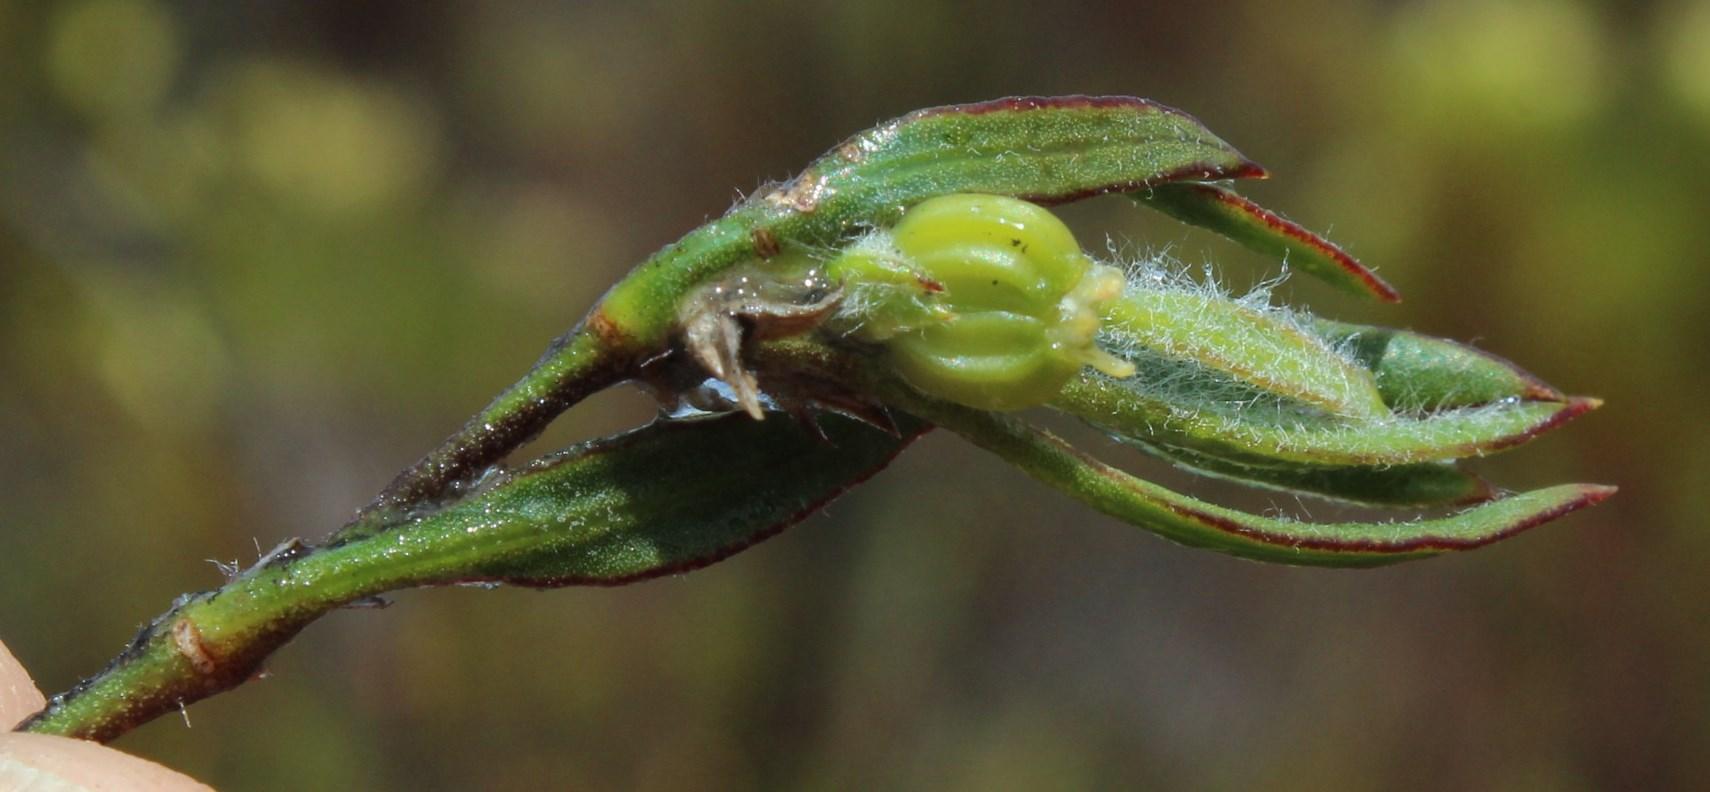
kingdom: Plantae
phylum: Tracheophyta
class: Magnoliopsida
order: Apiales
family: Apiaceae
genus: Centella
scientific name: Centella tridentata
